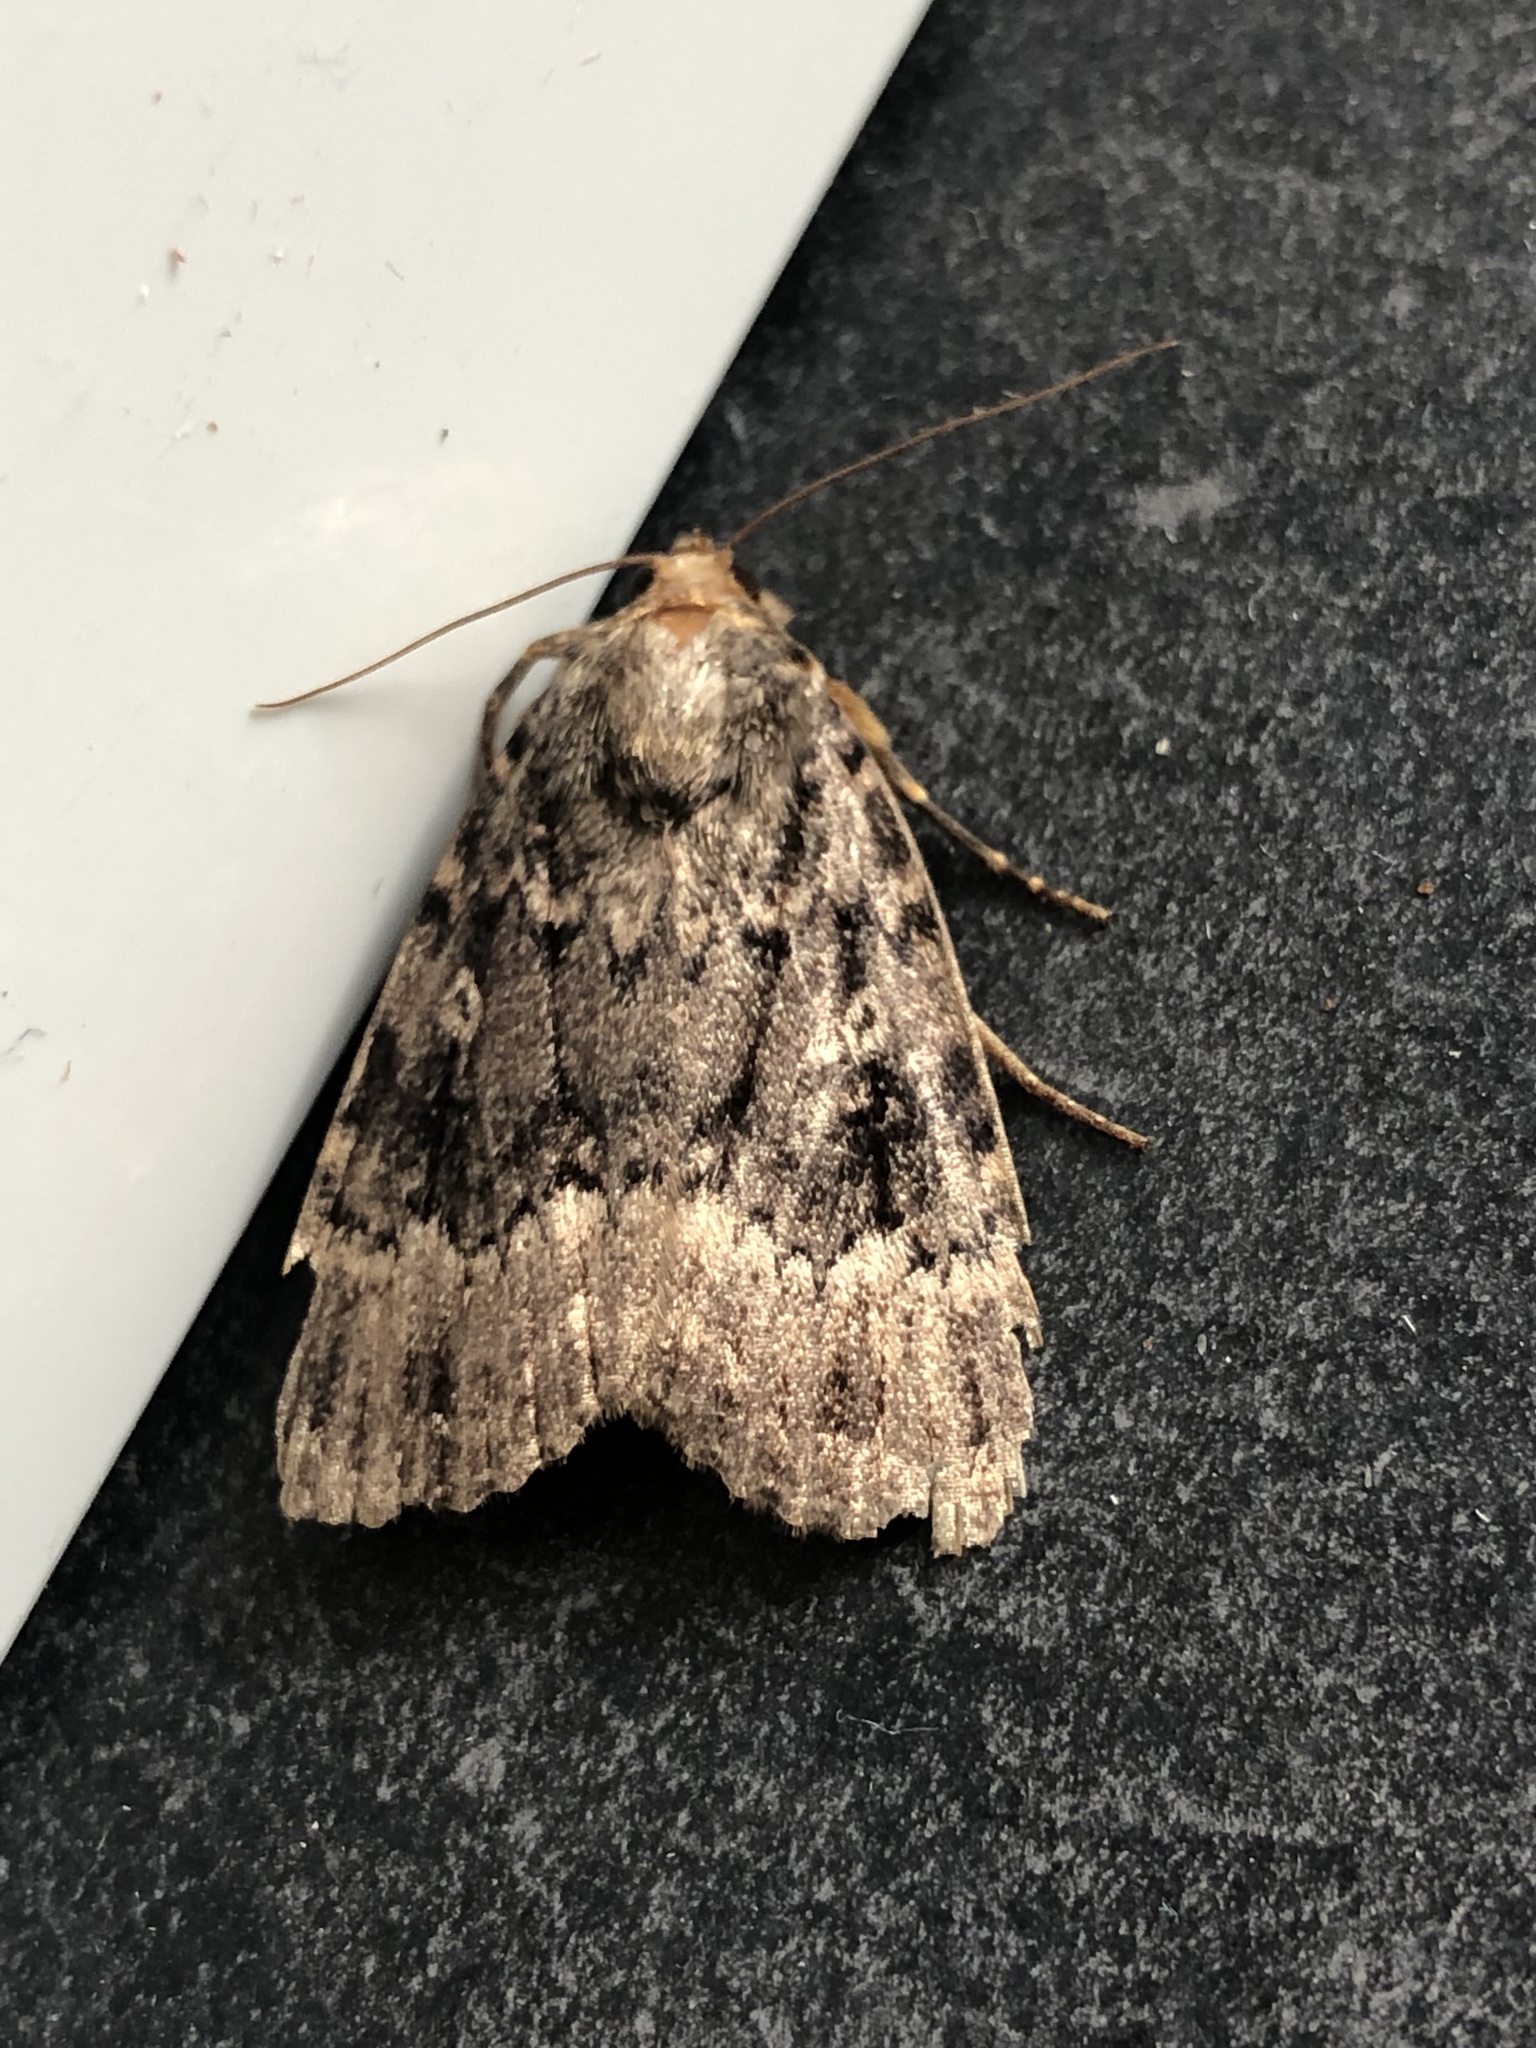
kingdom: Animalia
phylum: Arthropoda
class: Insecta
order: Lepidoptera
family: Noctuidae
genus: Amphipyra
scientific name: Amphipyra berbera
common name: Svensson's copper underwing
